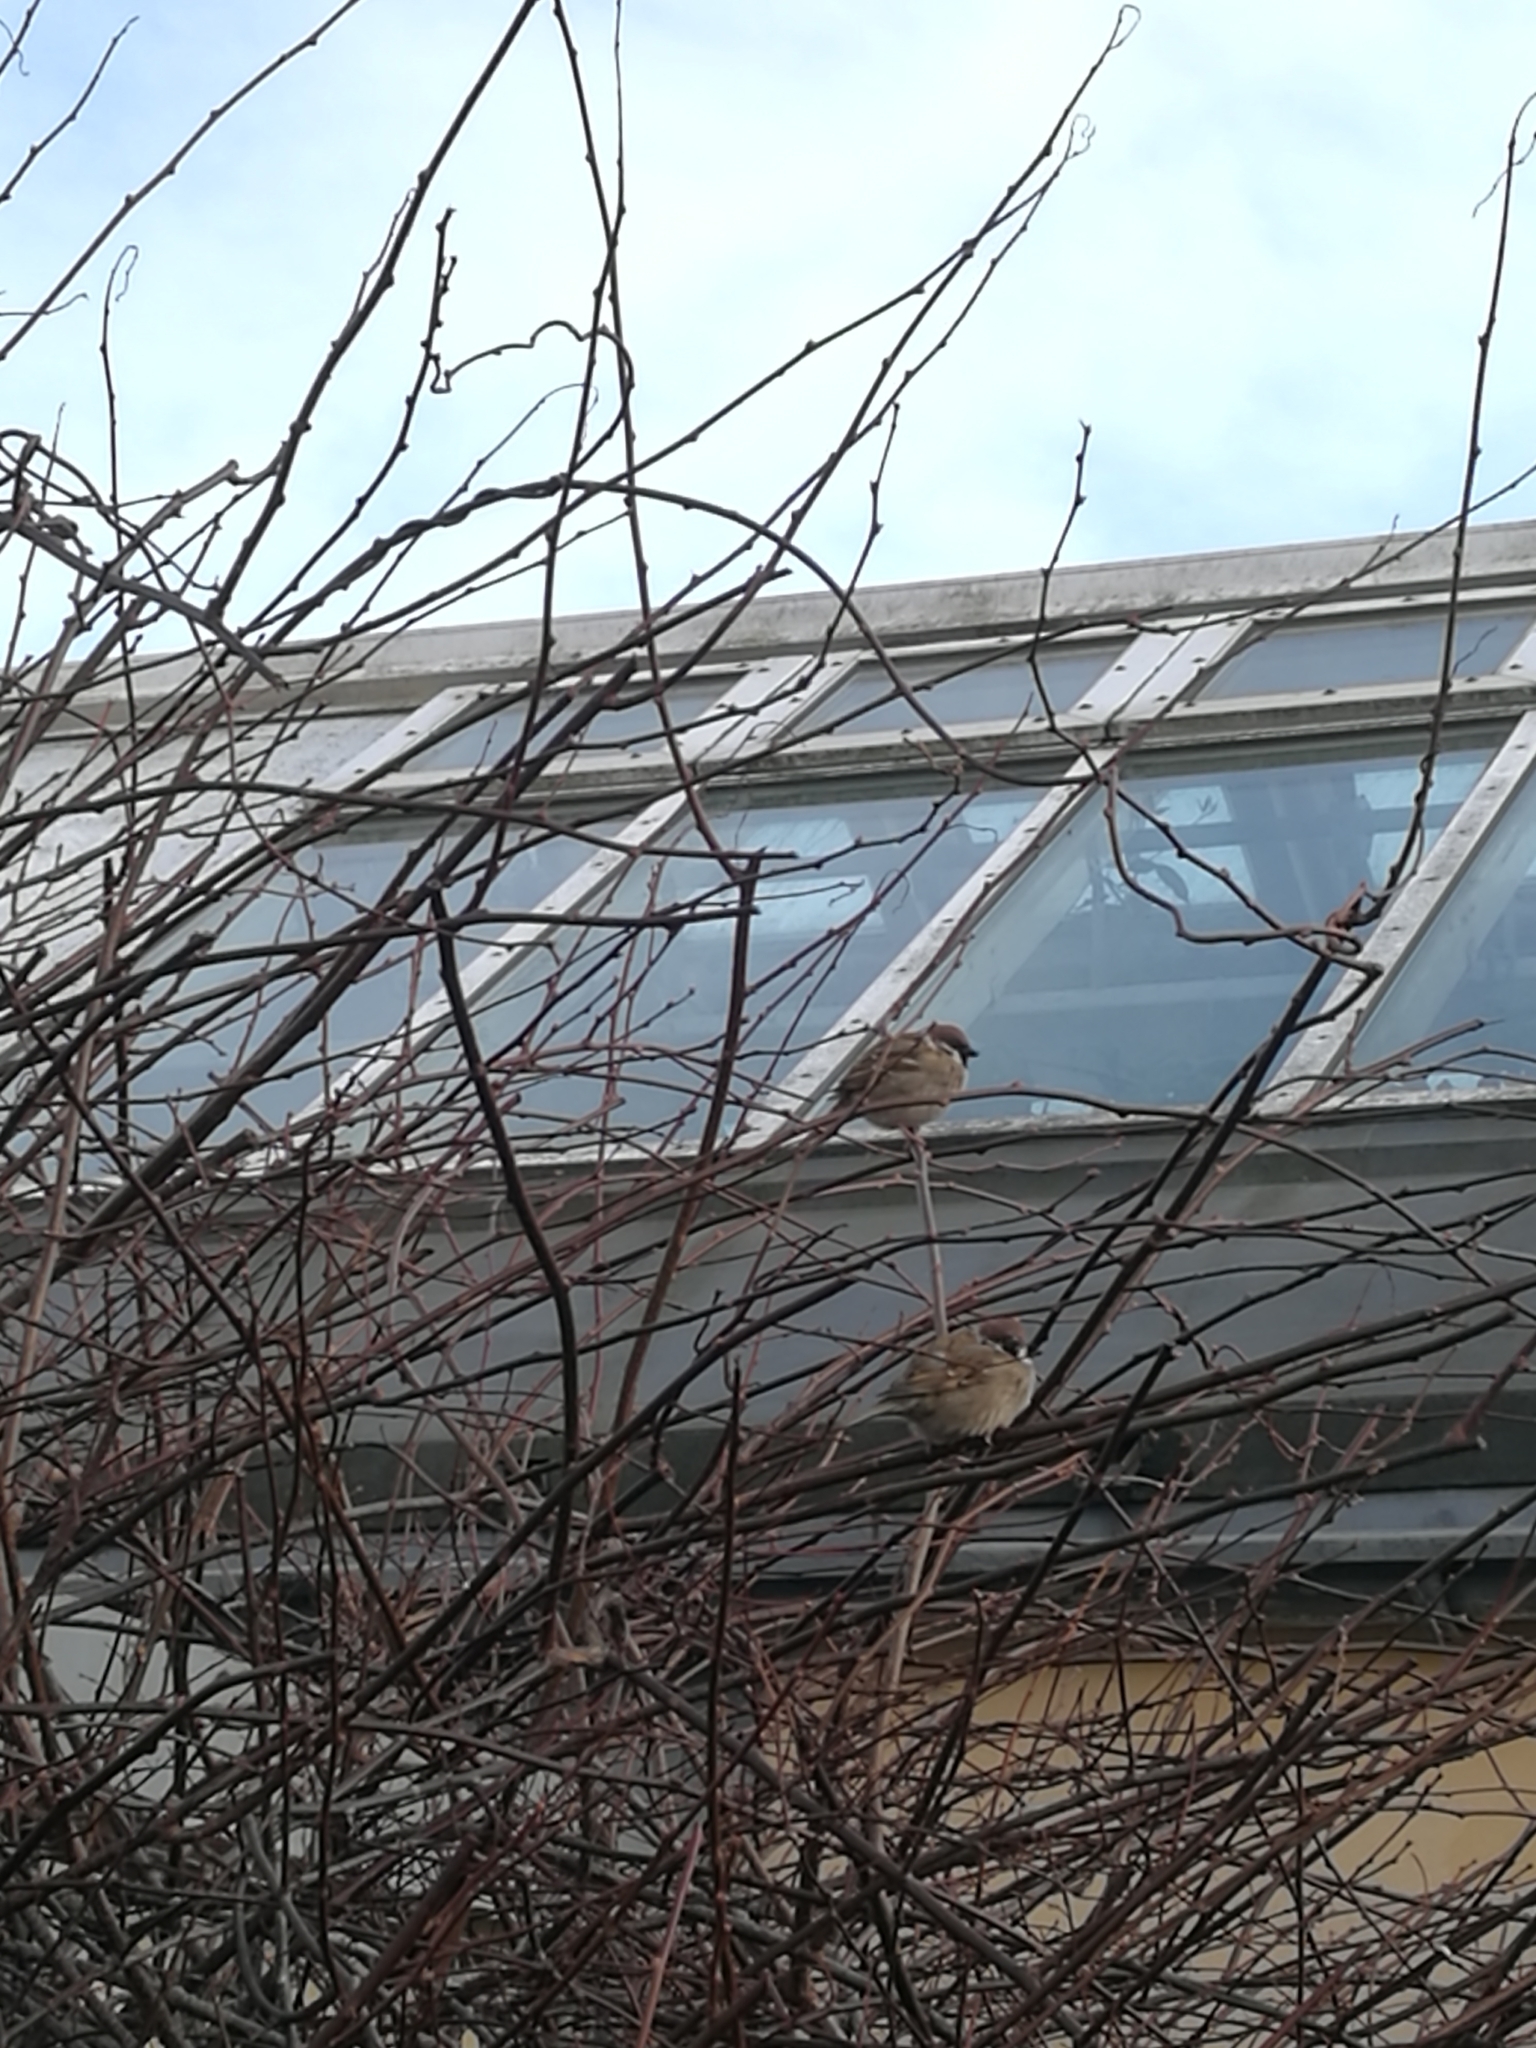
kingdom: Animalia
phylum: Chordata
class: Aves
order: Passeriformes
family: Passeridae
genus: Passer
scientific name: Passer montanus
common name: Eurasian tree sparrow
